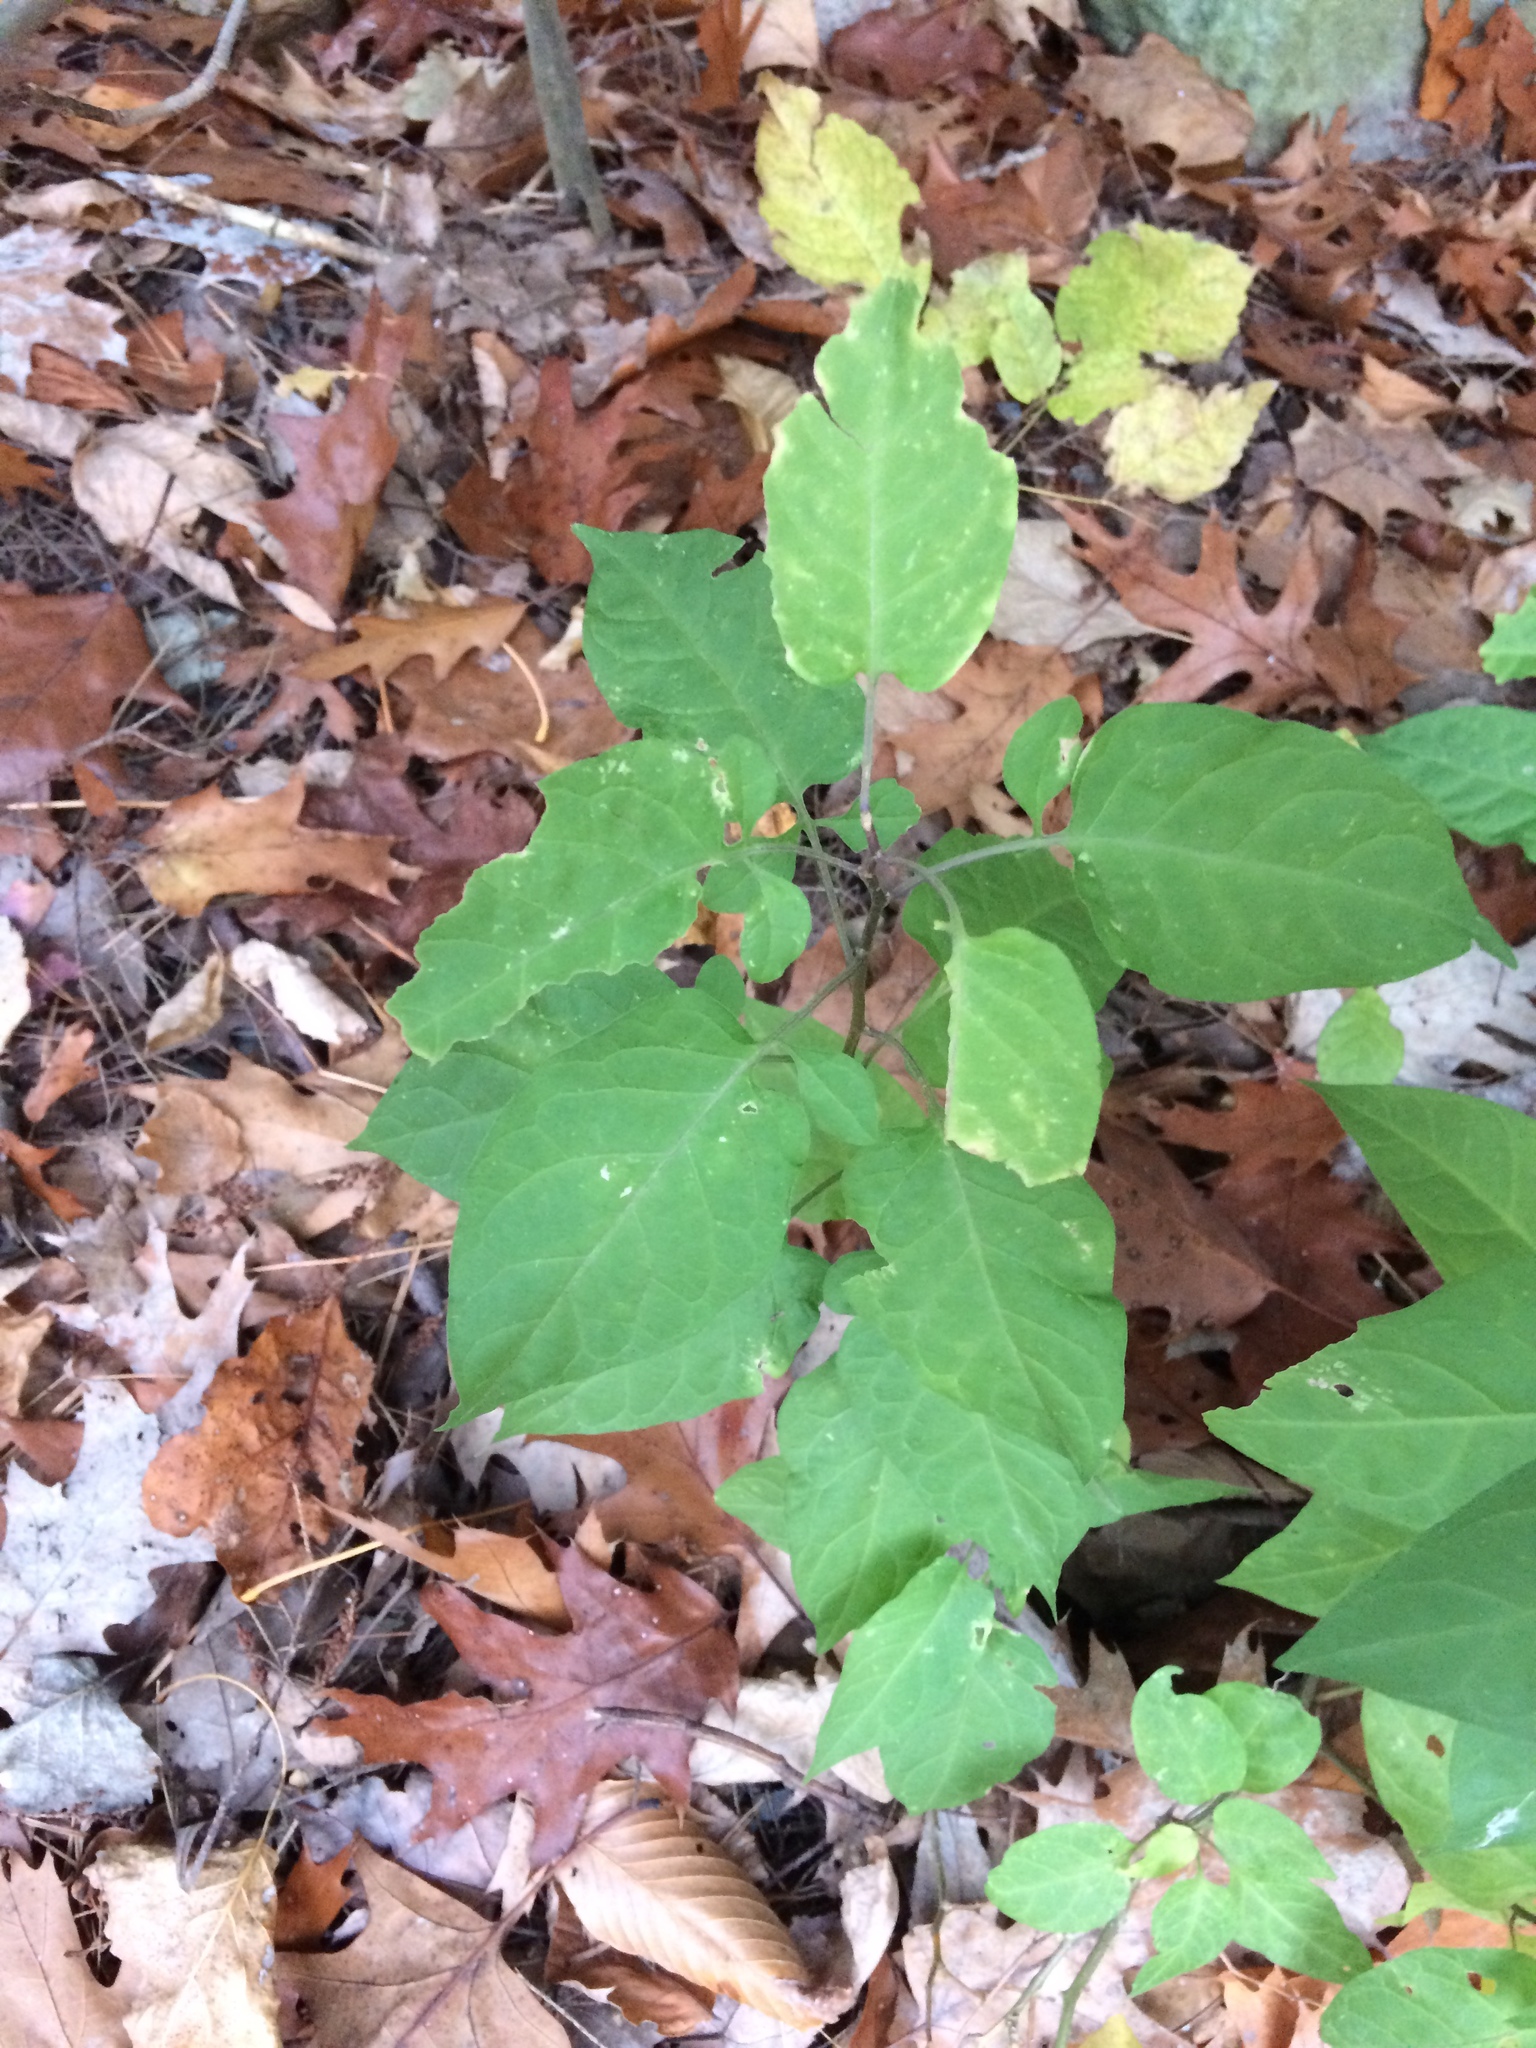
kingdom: Plantae
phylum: Tracheophyta
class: Magnoliopsida
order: Solanales
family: Solanaceae
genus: Solanum
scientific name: Solanum dulcamara
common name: Climbing nightshade
